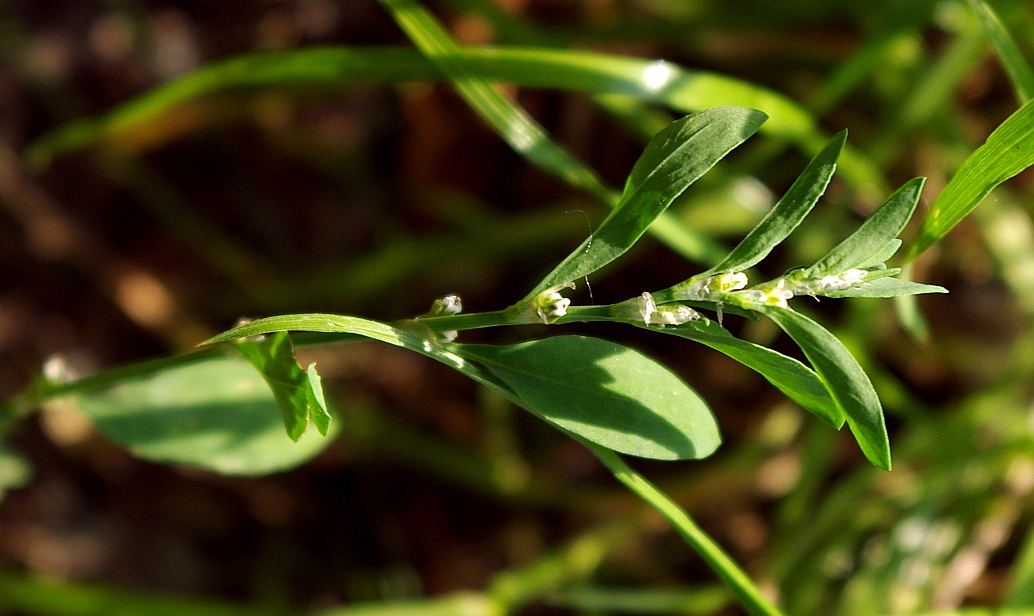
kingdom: Plantae
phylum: Tracheophyta
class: Magnoliopsida
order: Caryophyllales
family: Polygonaceae
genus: Polygonum
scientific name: Polygonum
